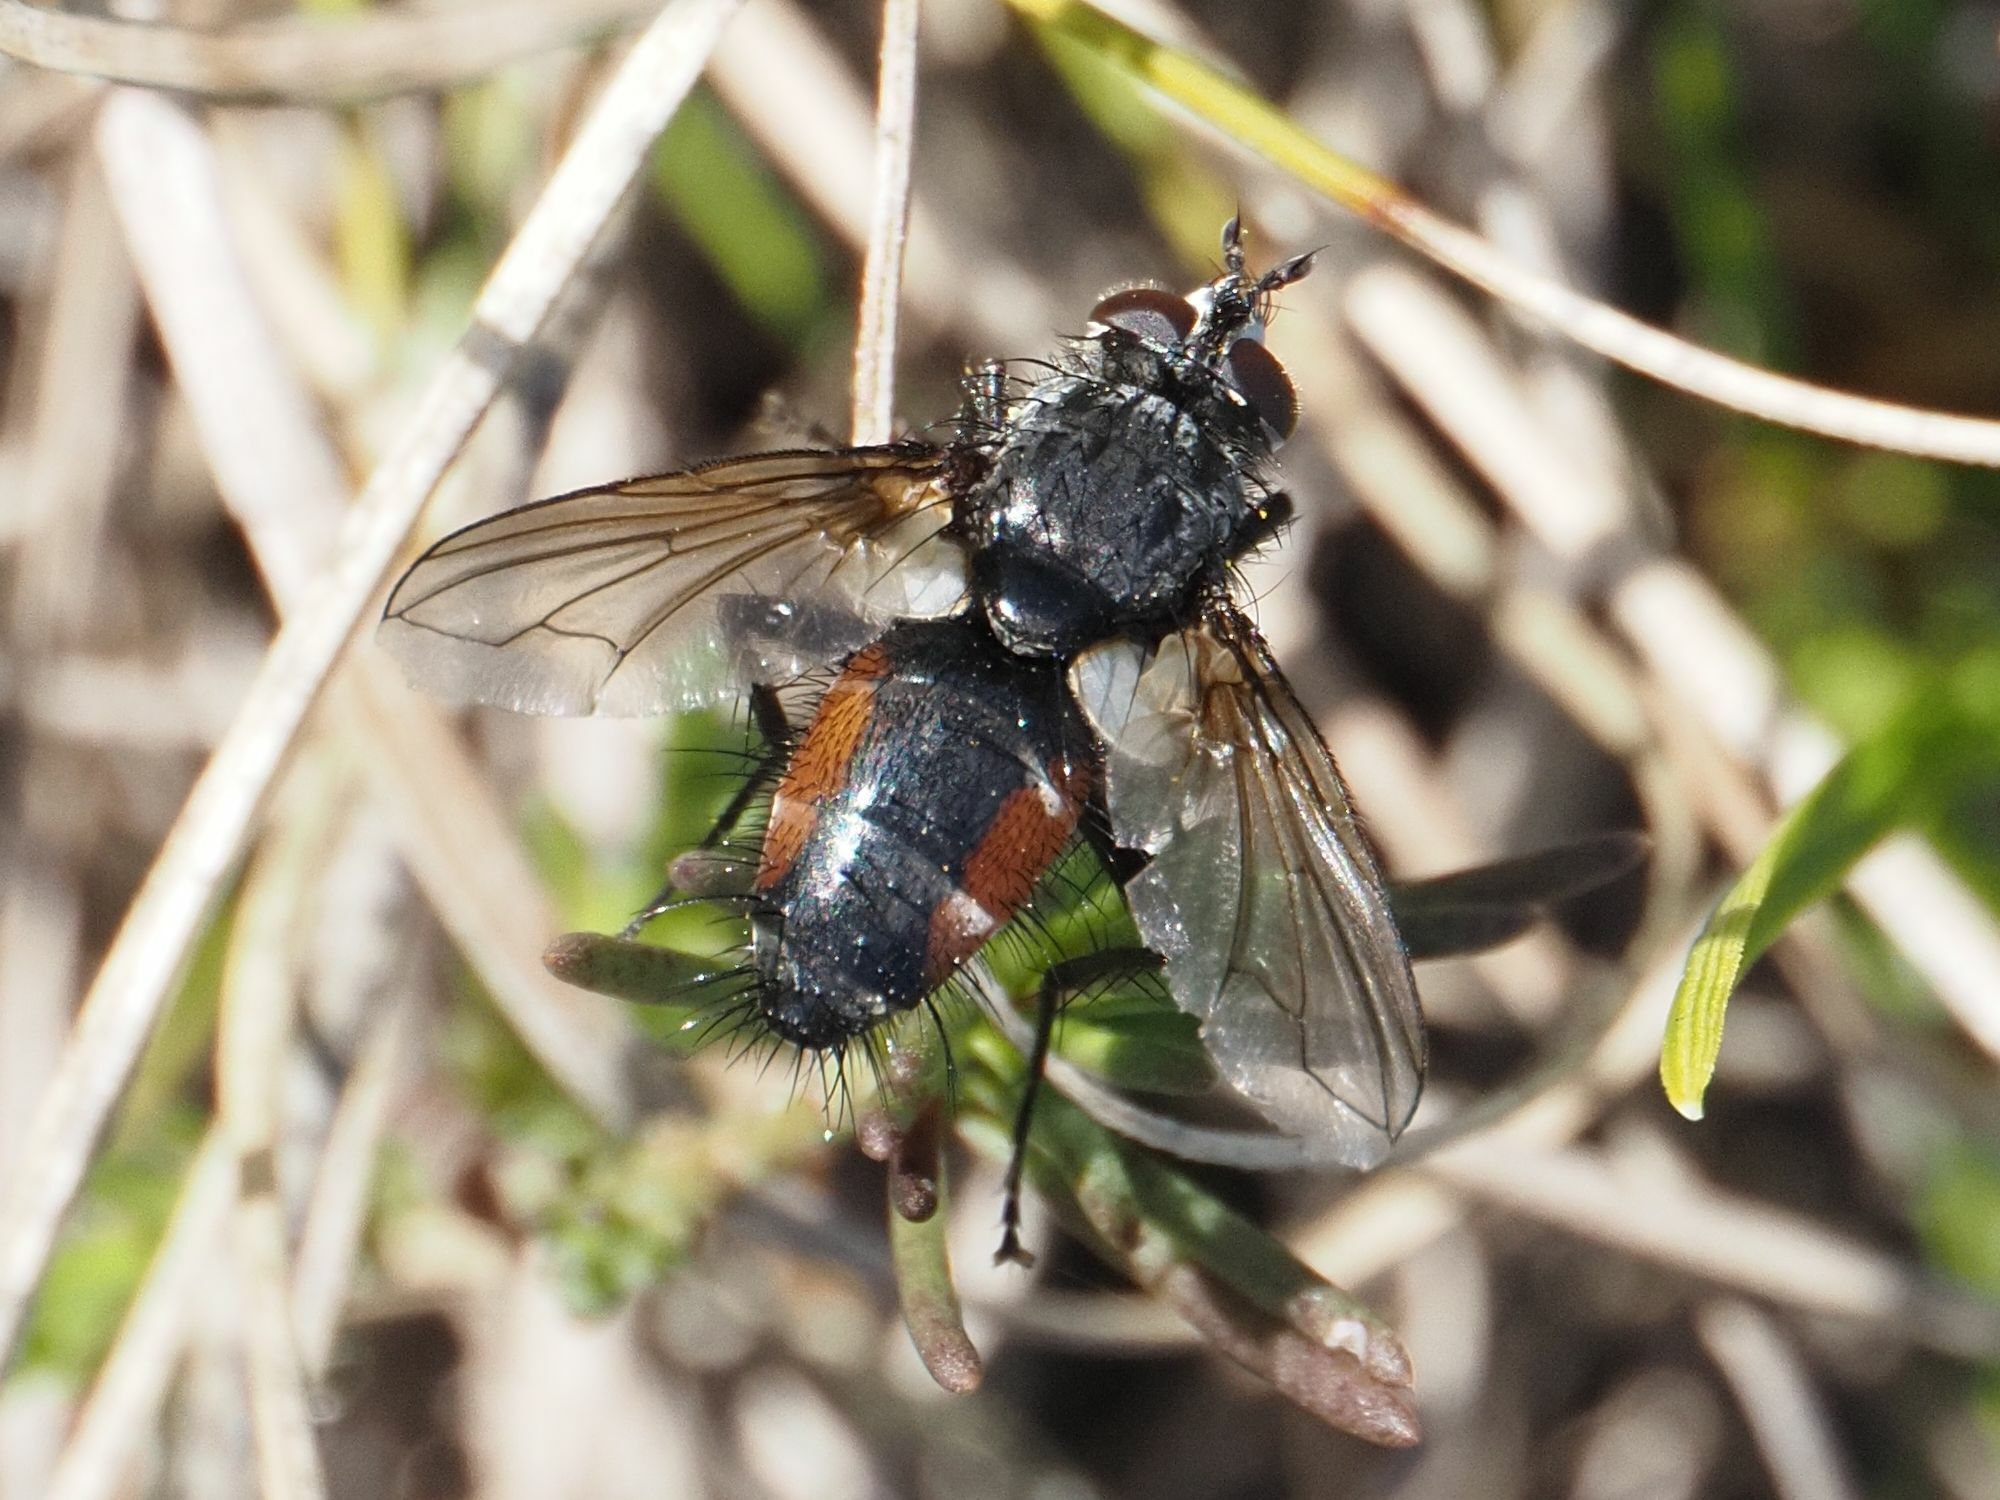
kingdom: Animalia
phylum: Arthropoda
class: Insecta
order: Diptera
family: Tachinidae
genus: Eriothrix
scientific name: Eriothrix rufomaculatus
